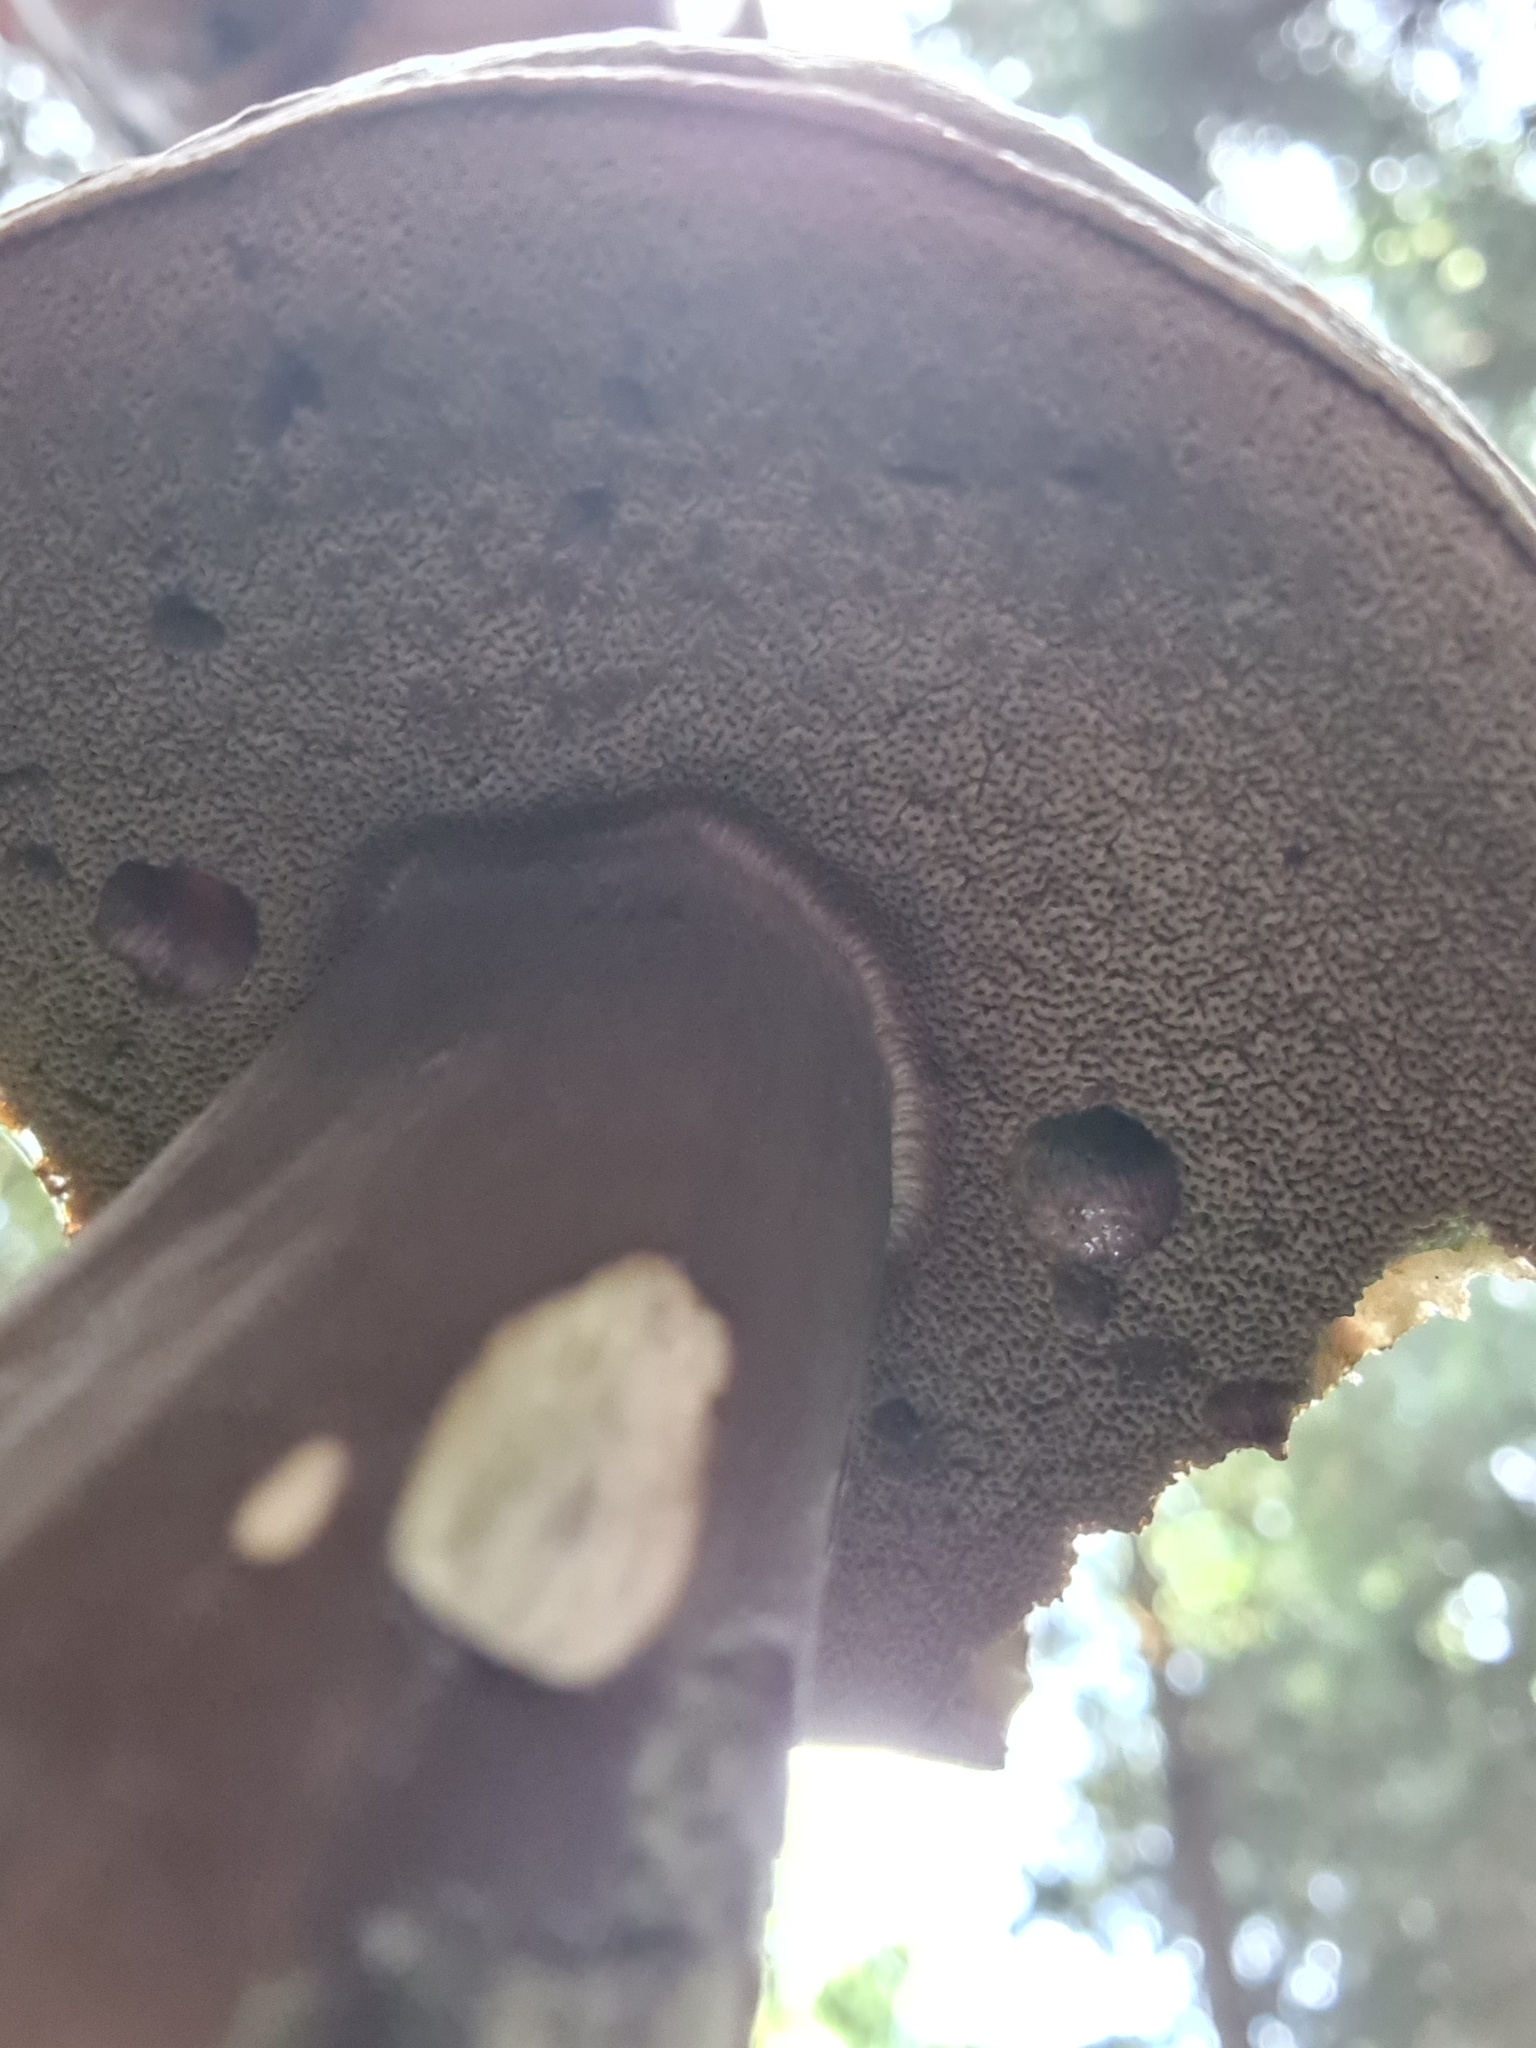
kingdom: Fungi
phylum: Basidiomycota
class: Agaricomycetes
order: Boletales
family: Boletaceae
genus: Porphyrellus
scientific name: Porphyrellus porphyrosporus
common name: Dusky bolete
